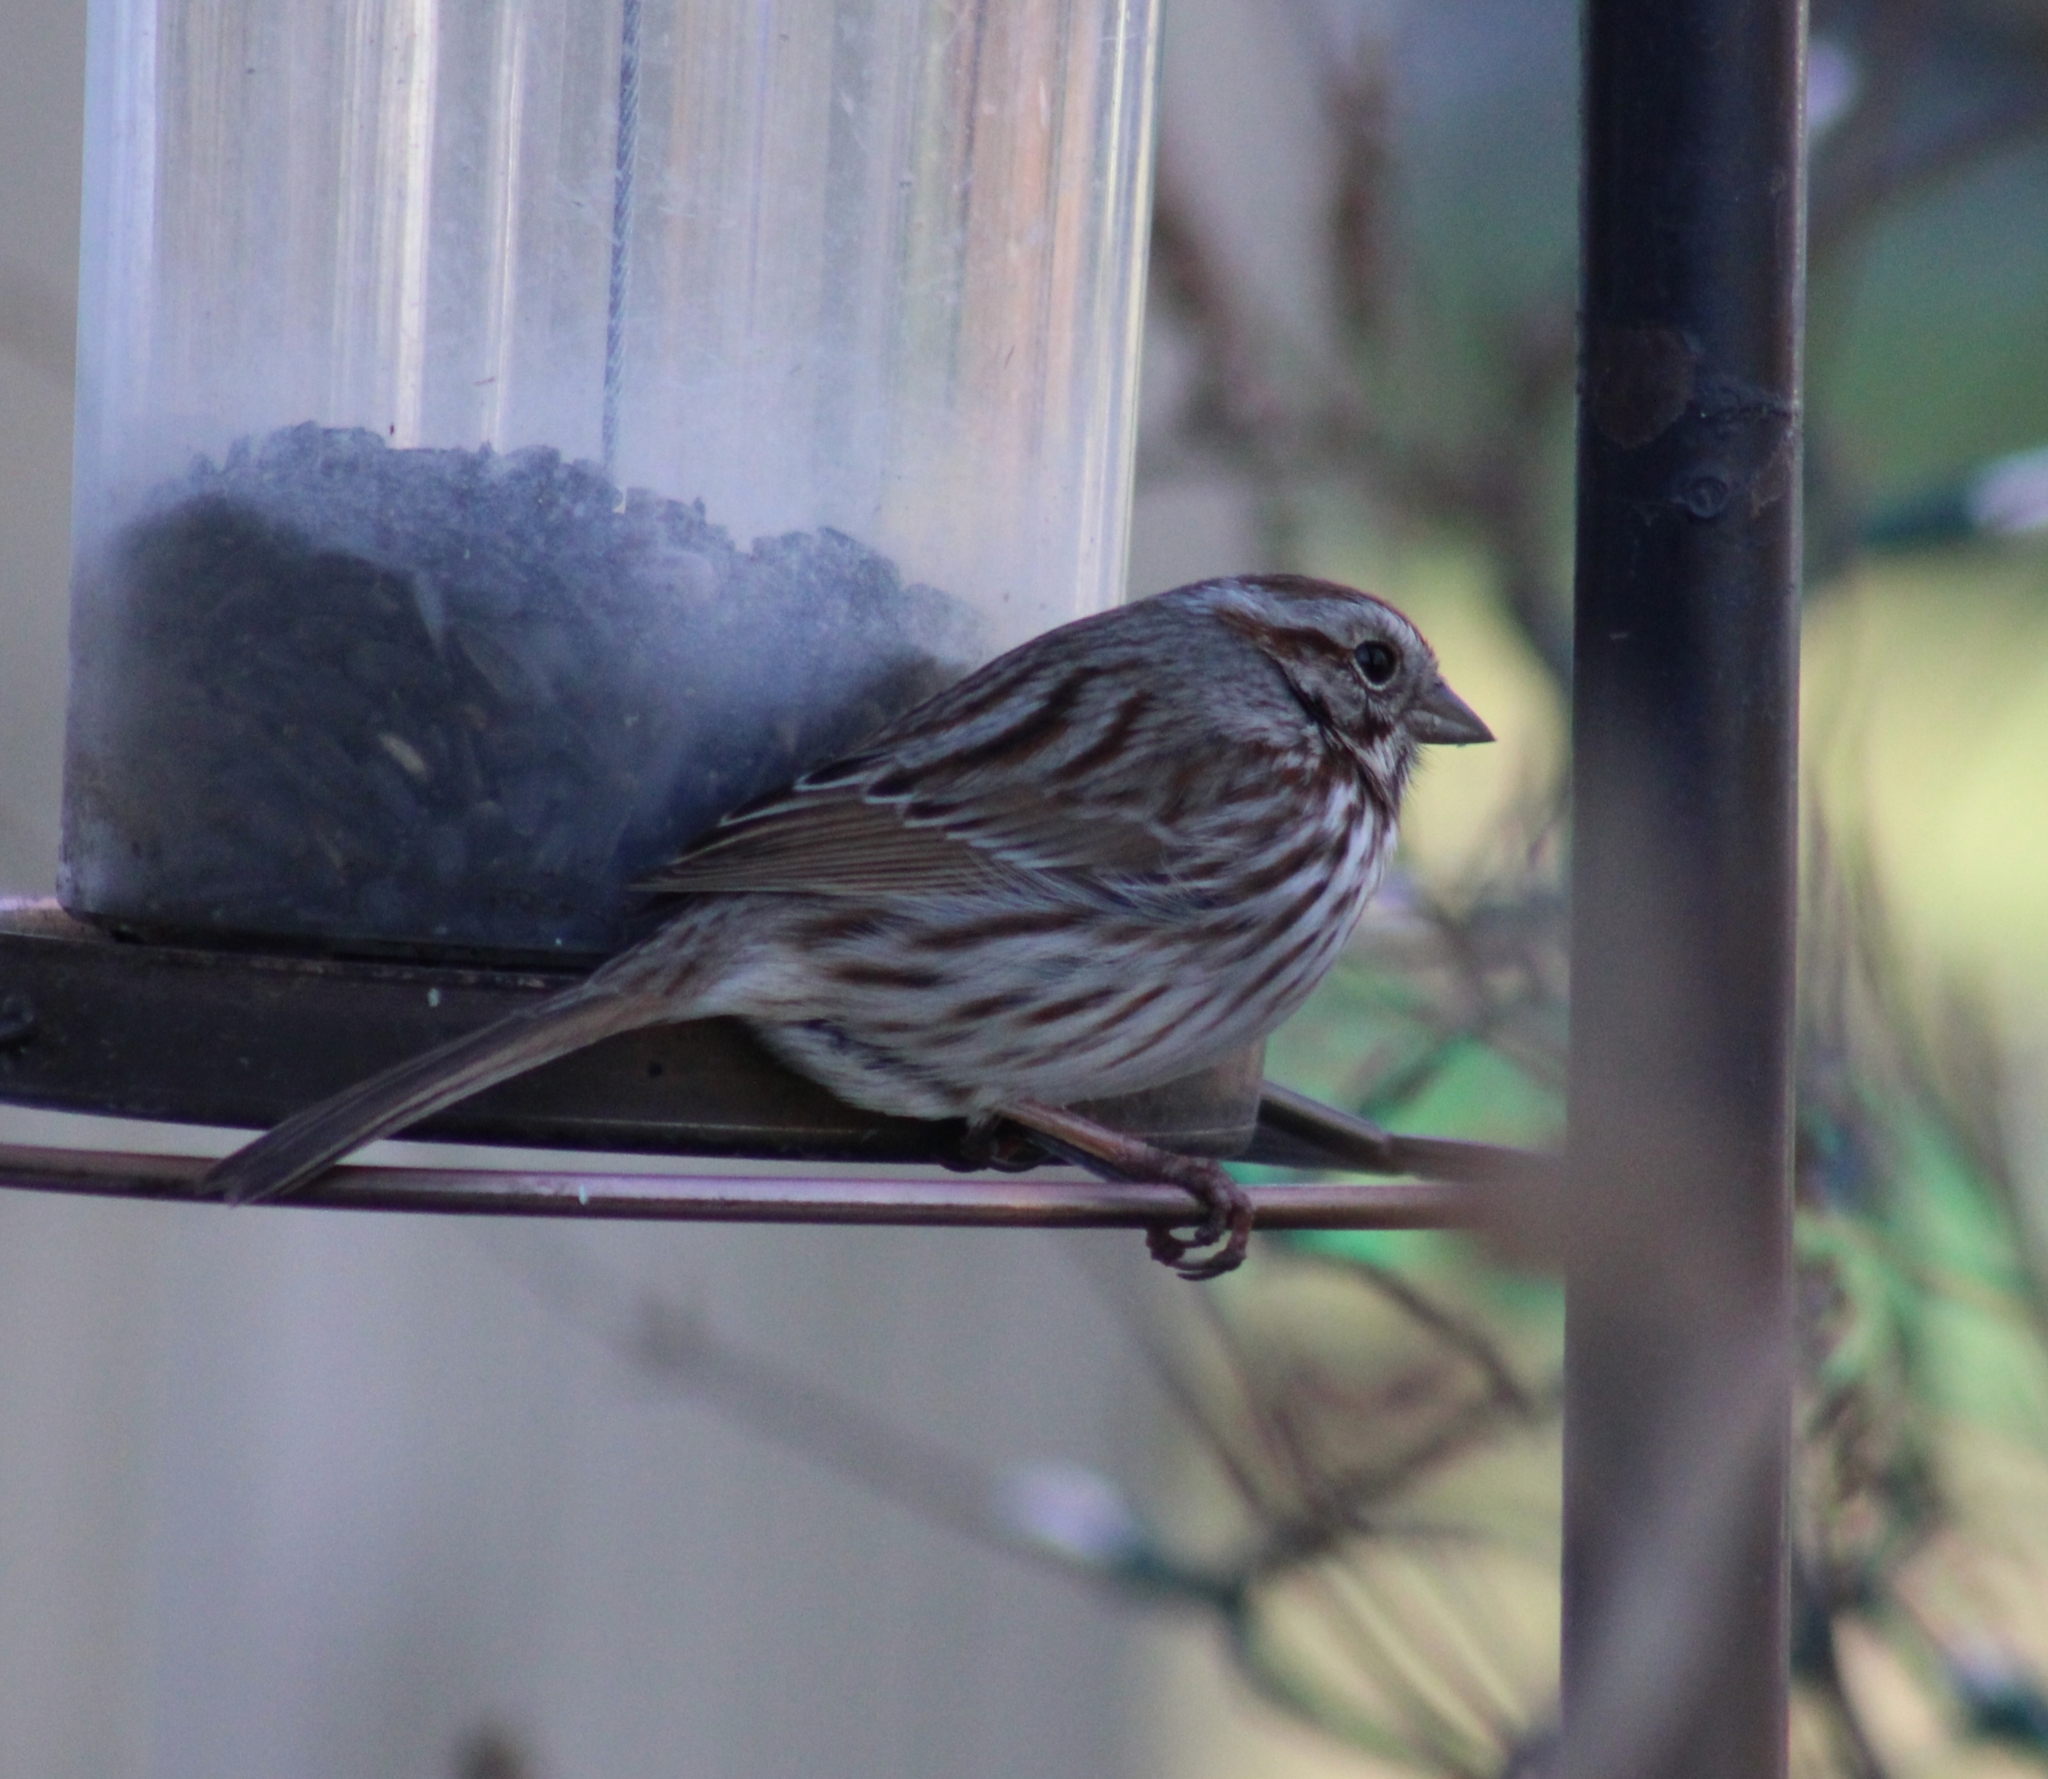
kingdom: Animalia
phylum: Chordata
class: Aves
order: Passeriformes
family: Passerellidae
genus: Melospiza
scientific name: Melospiza melodia
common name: Song sparrow
